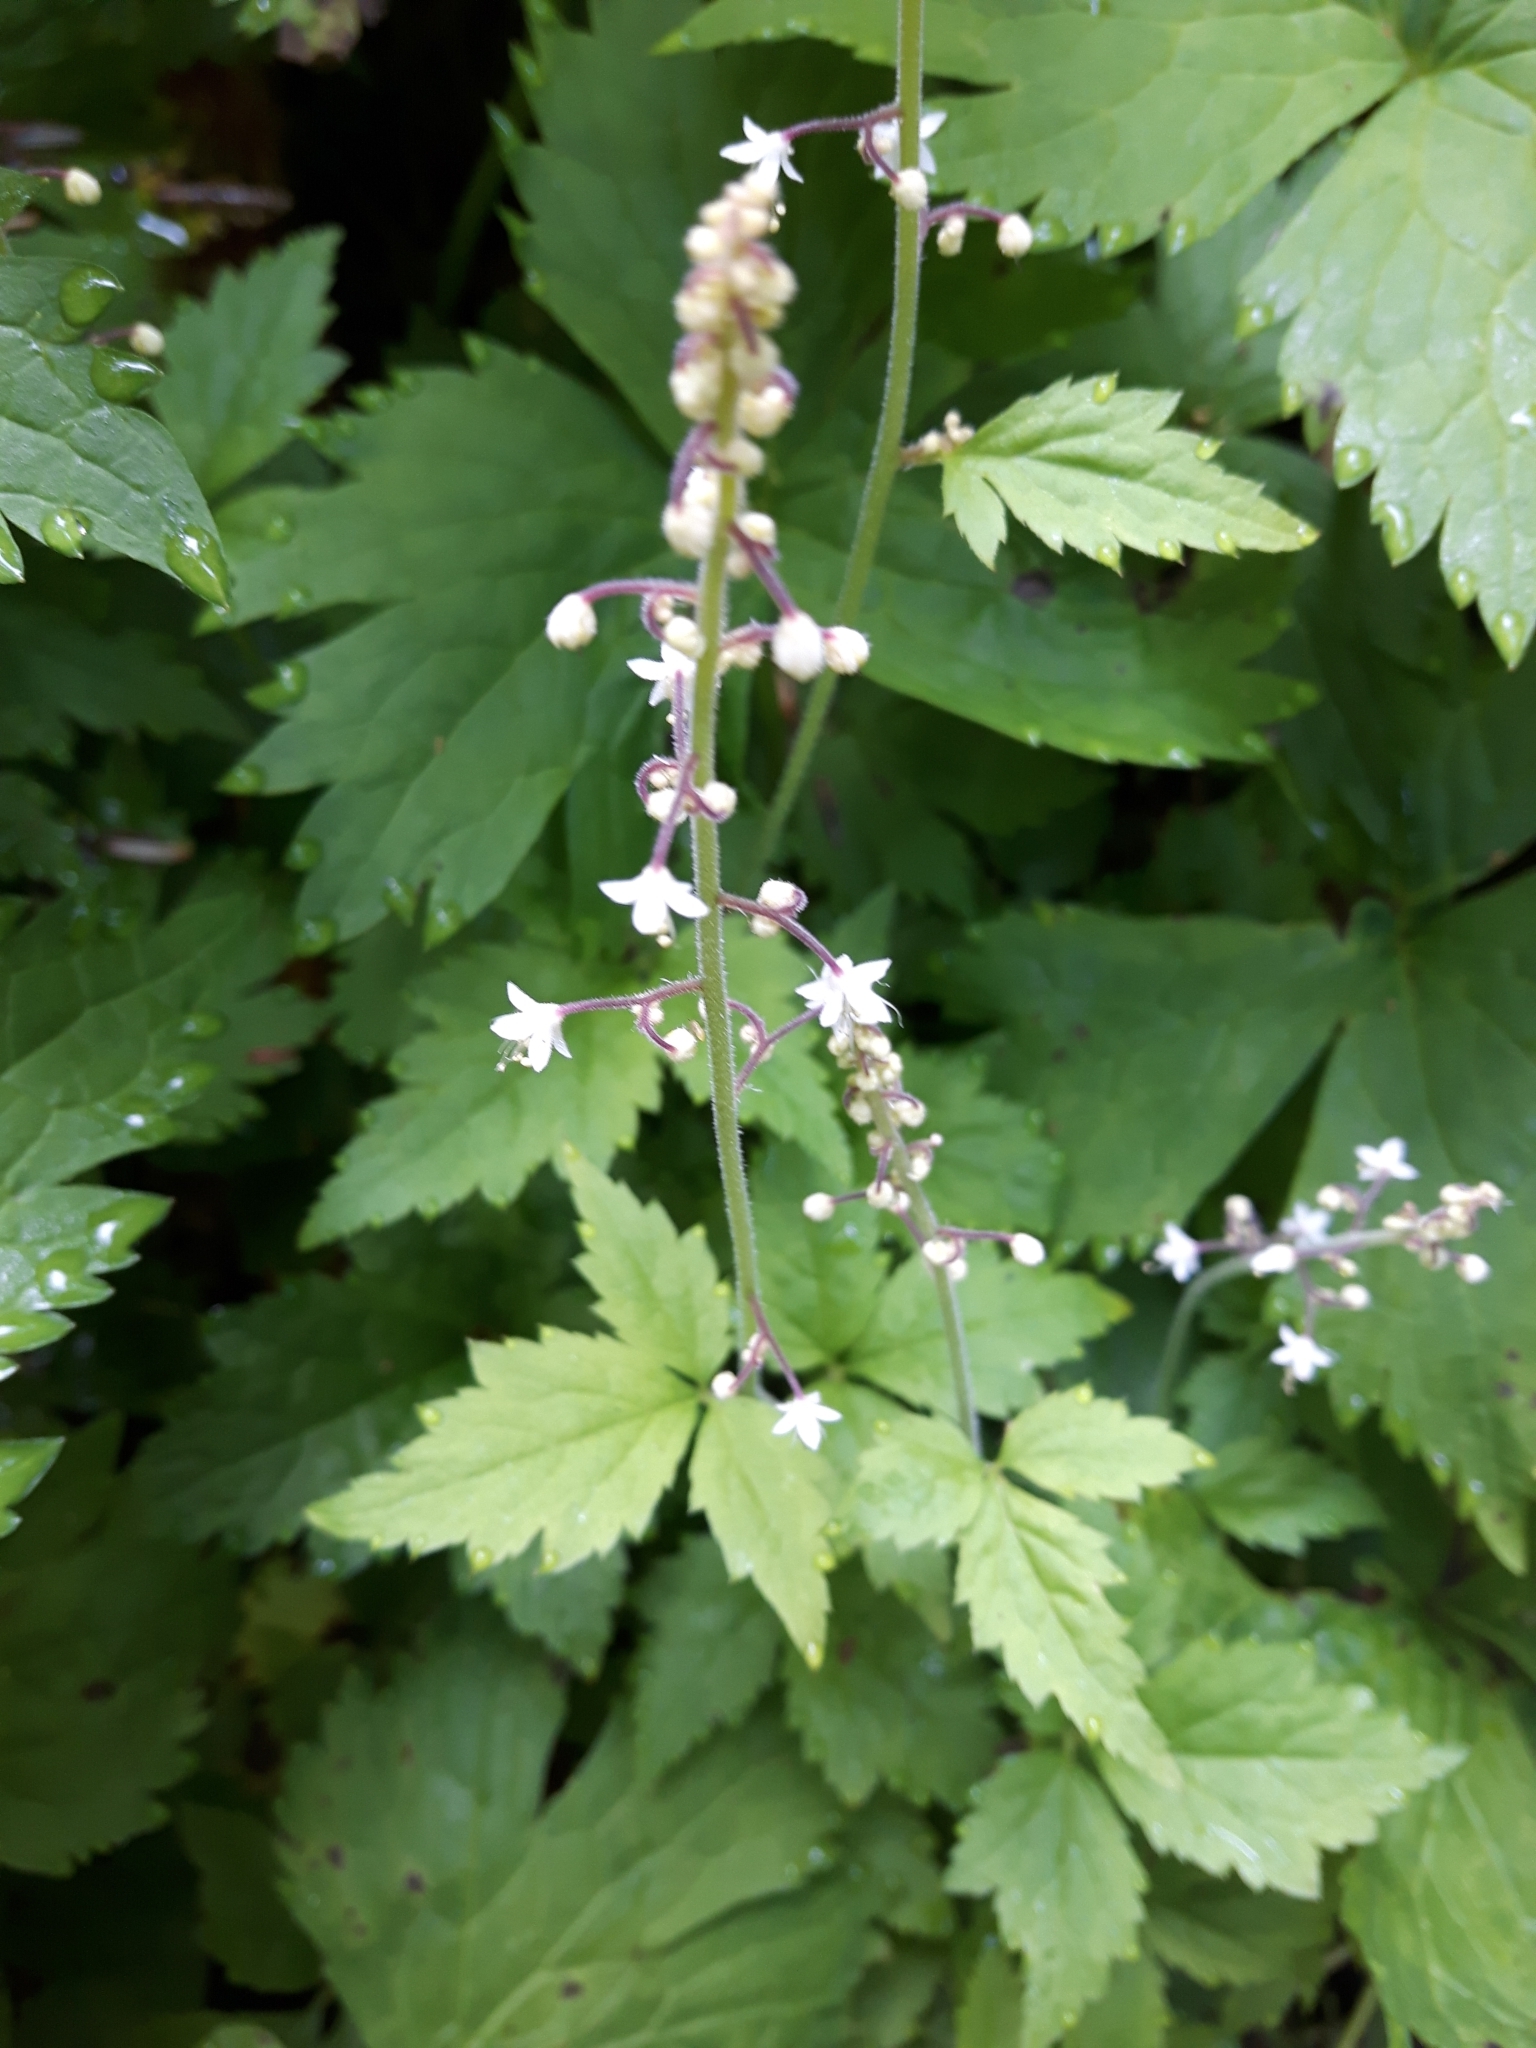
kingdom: Plantae
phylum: Tracheophyta
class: Magnoliopsida
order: Saxifragales
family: Saxifragaceae
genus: Tiarella
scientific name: Tiarella trifoliata
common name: Sugar-scoop
